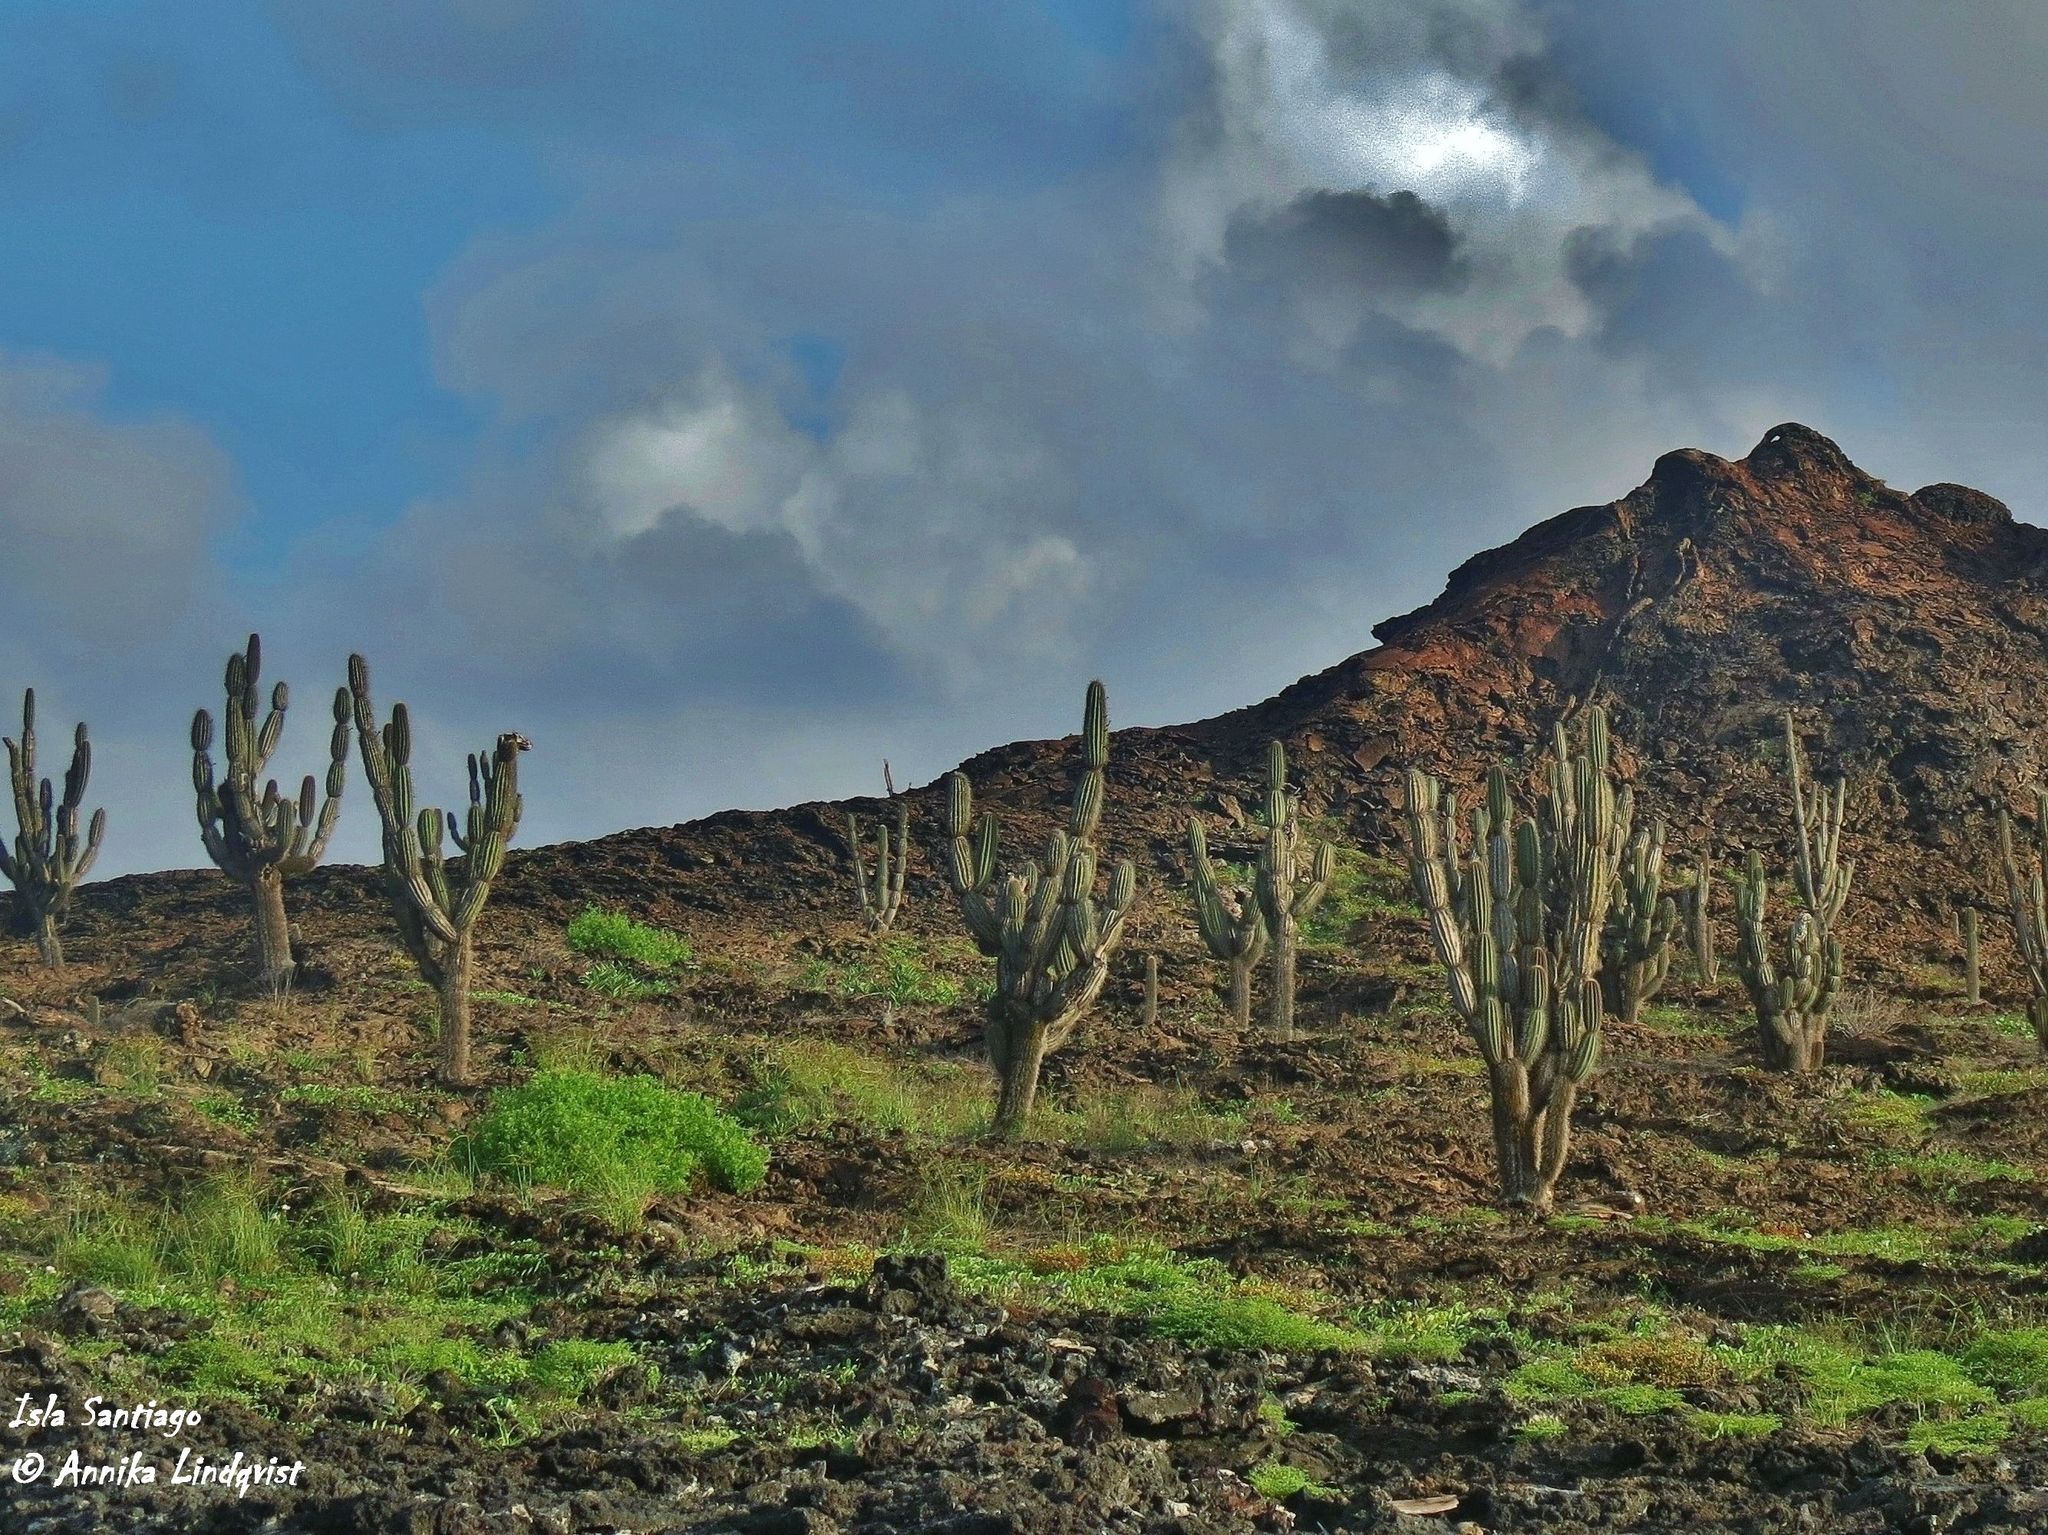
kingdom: Plantae
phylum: Tracheophyta
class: Magnoliopsida
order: Caryophyllales
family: Cactaceae
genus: Jasminocereus
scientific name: Jasminocereus thouarsii
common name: Candelabra cactus
